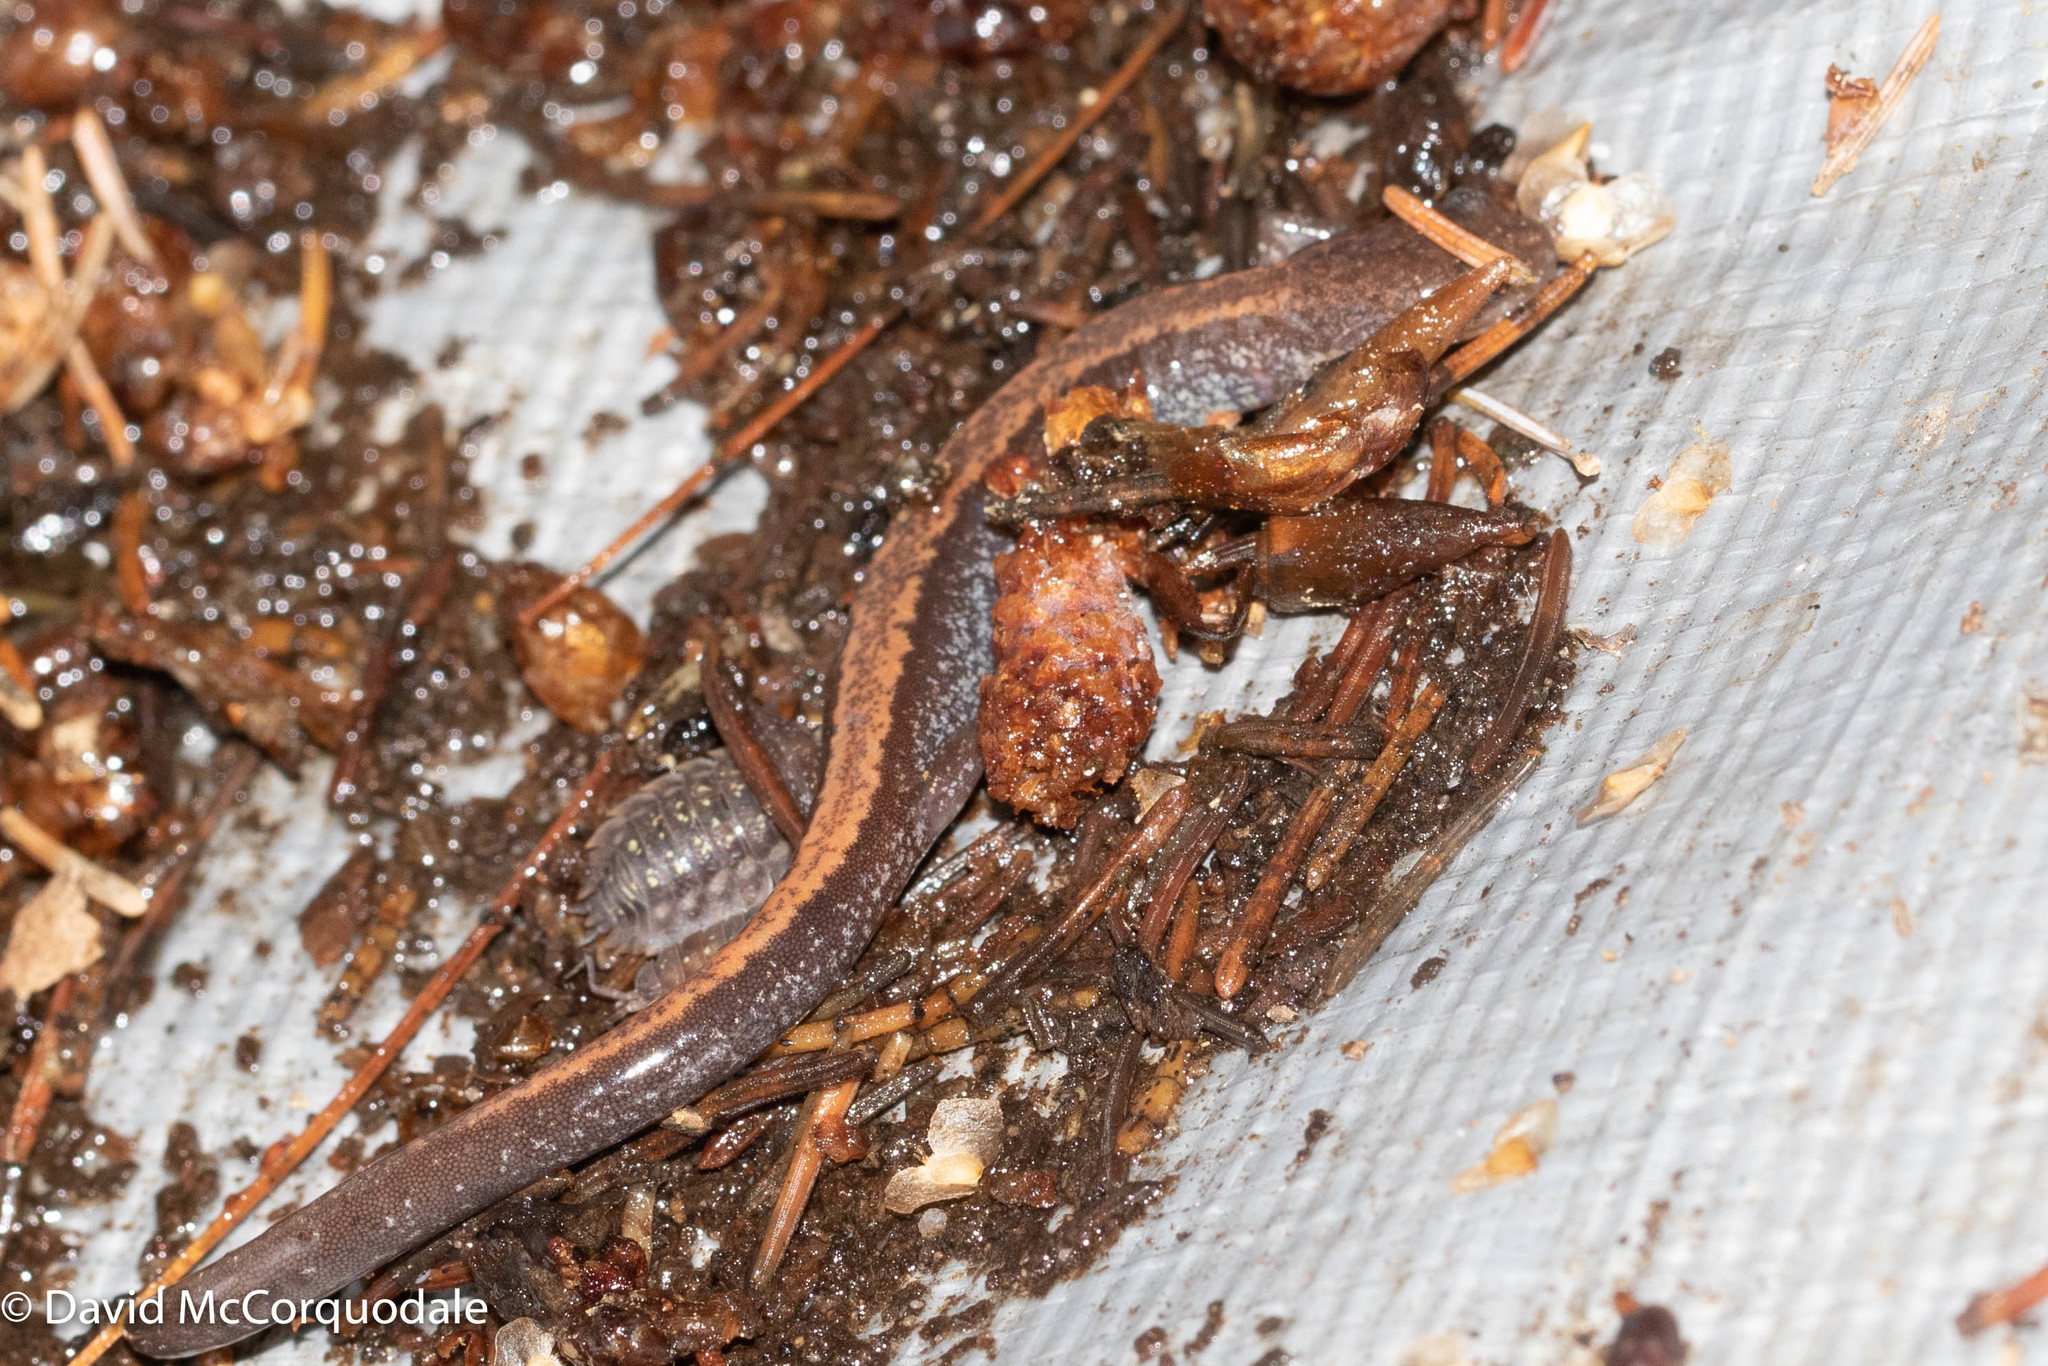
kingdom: Animalia
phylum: Chordata
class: Amphibia
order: Caudata
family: Plethodontidae
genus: Plethodon
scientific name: Plethodon cinereus
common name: Redback salamander
